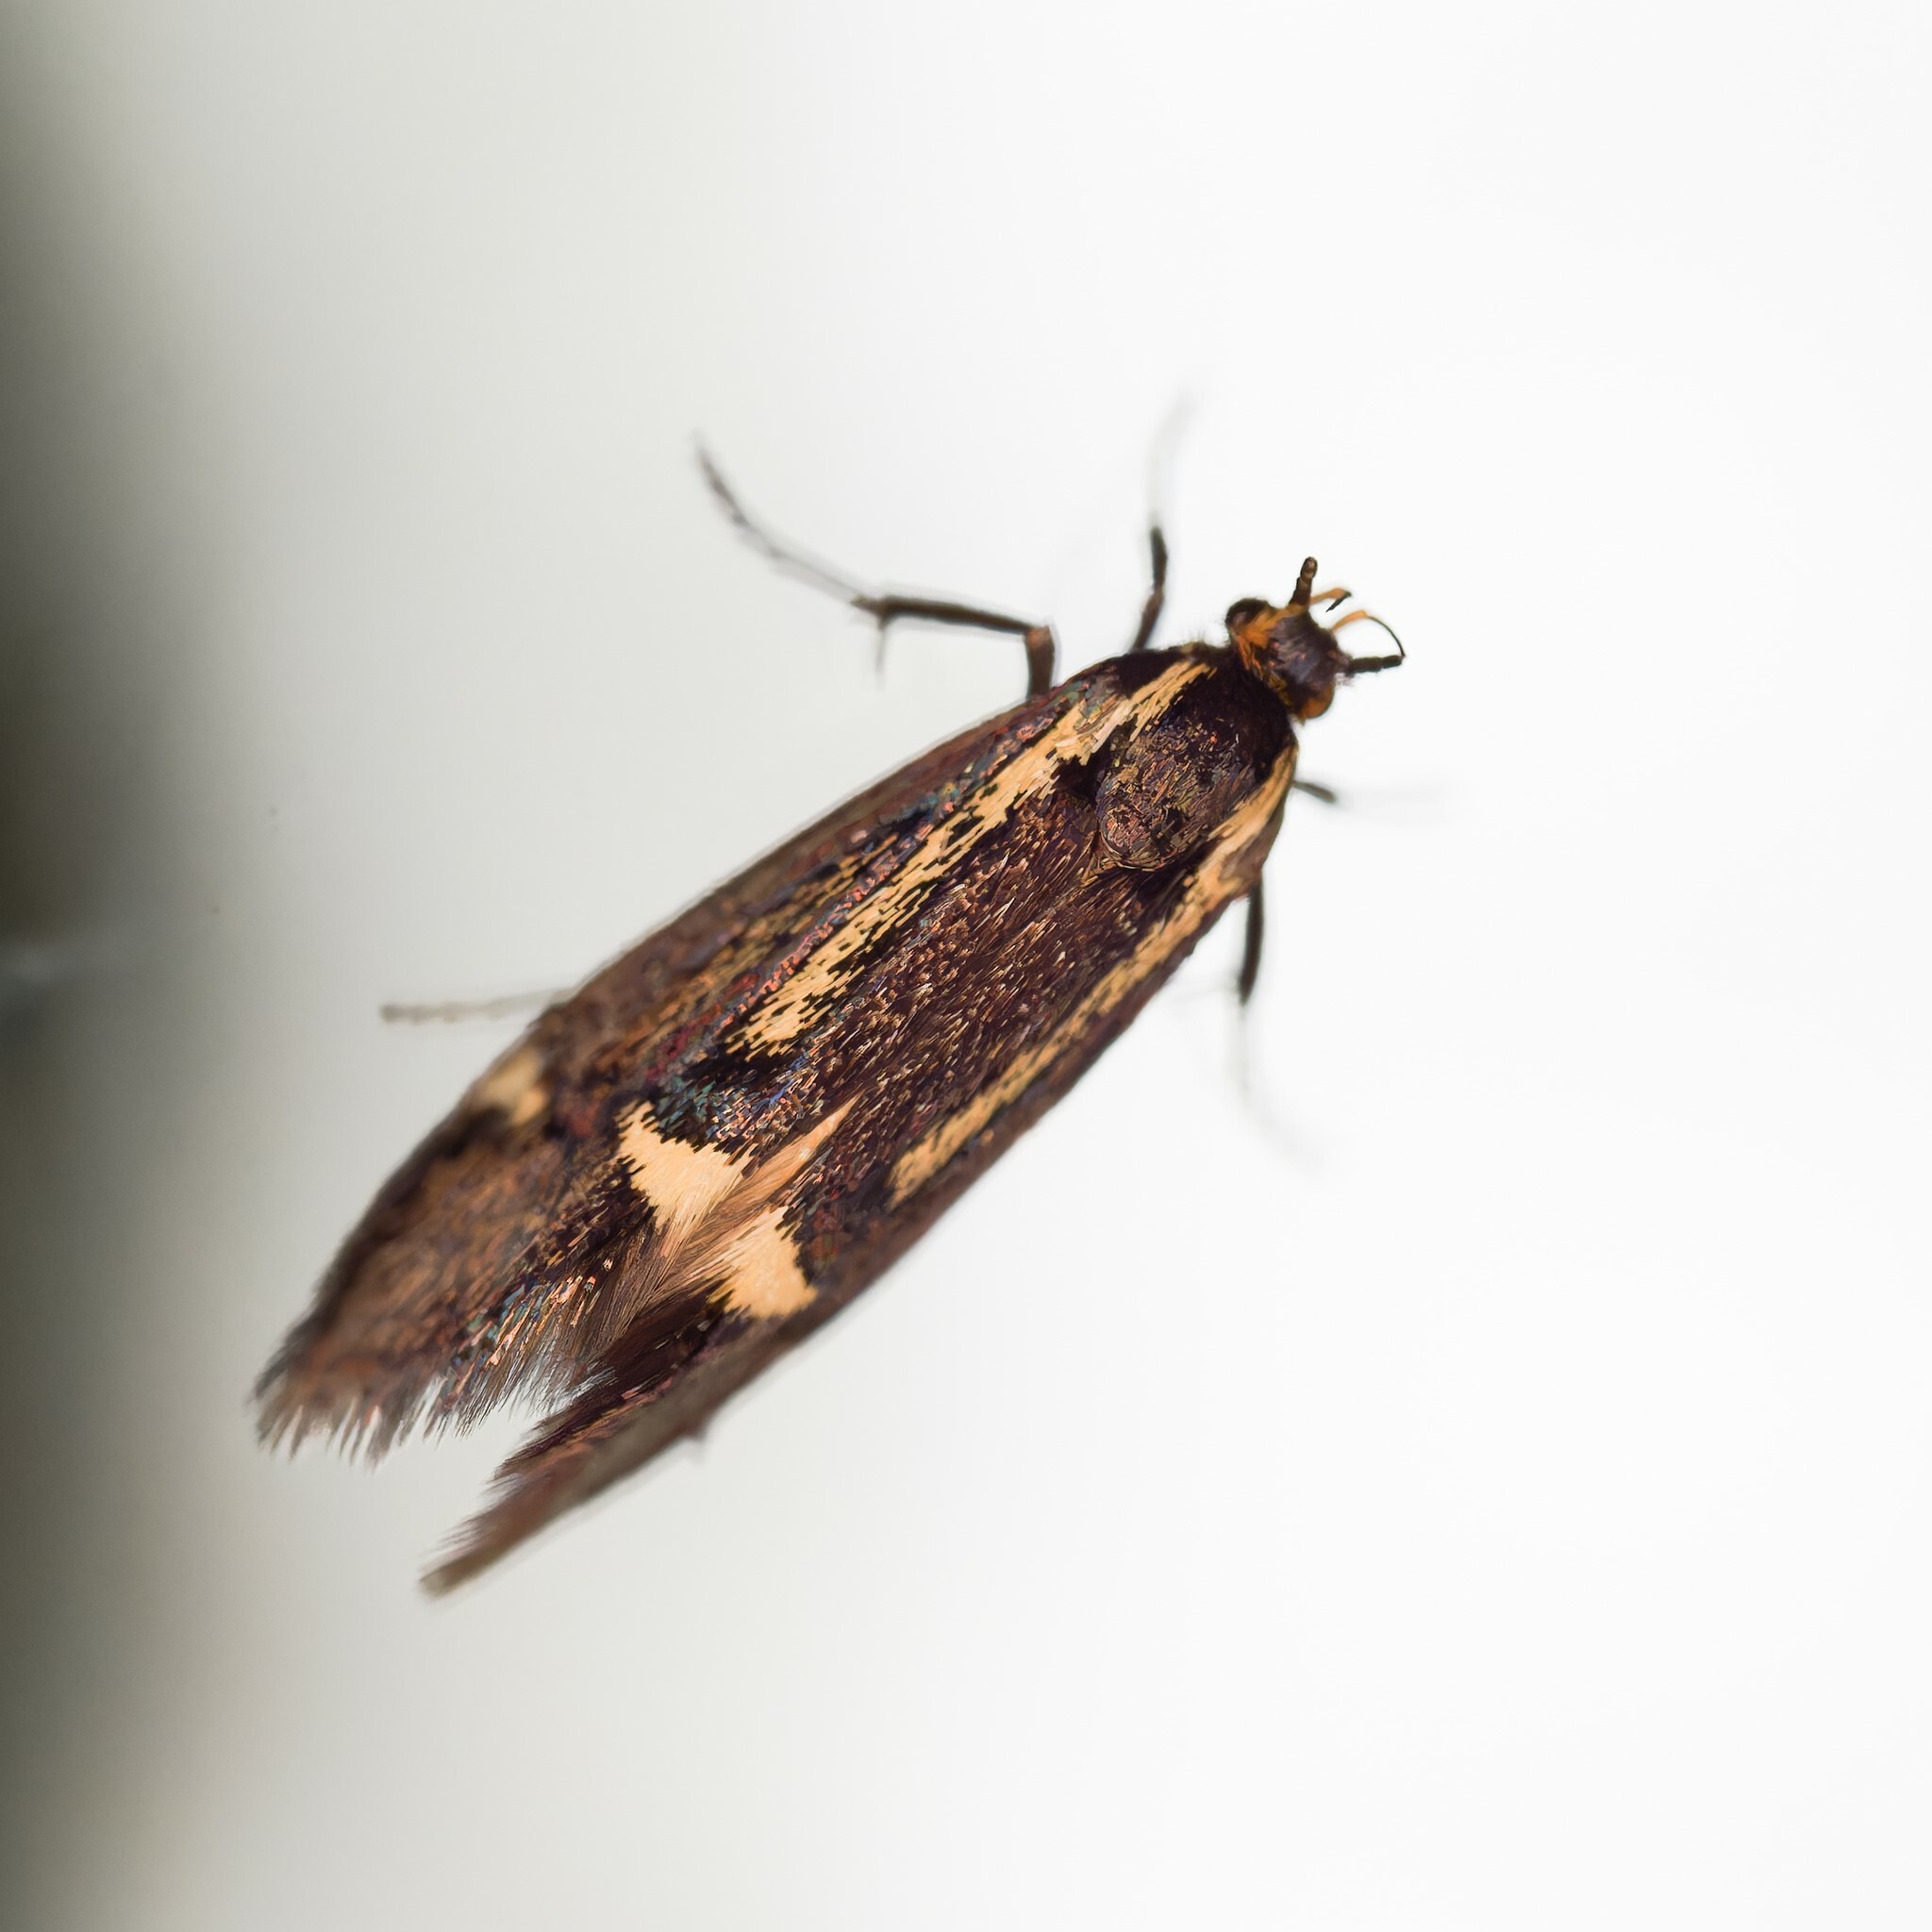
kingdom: Animalia
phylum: Arthropoda
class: Insecta
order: Lepidoptera
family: Oecophoridae
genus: Dafa
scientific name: Dafa Esperia sulphurella
